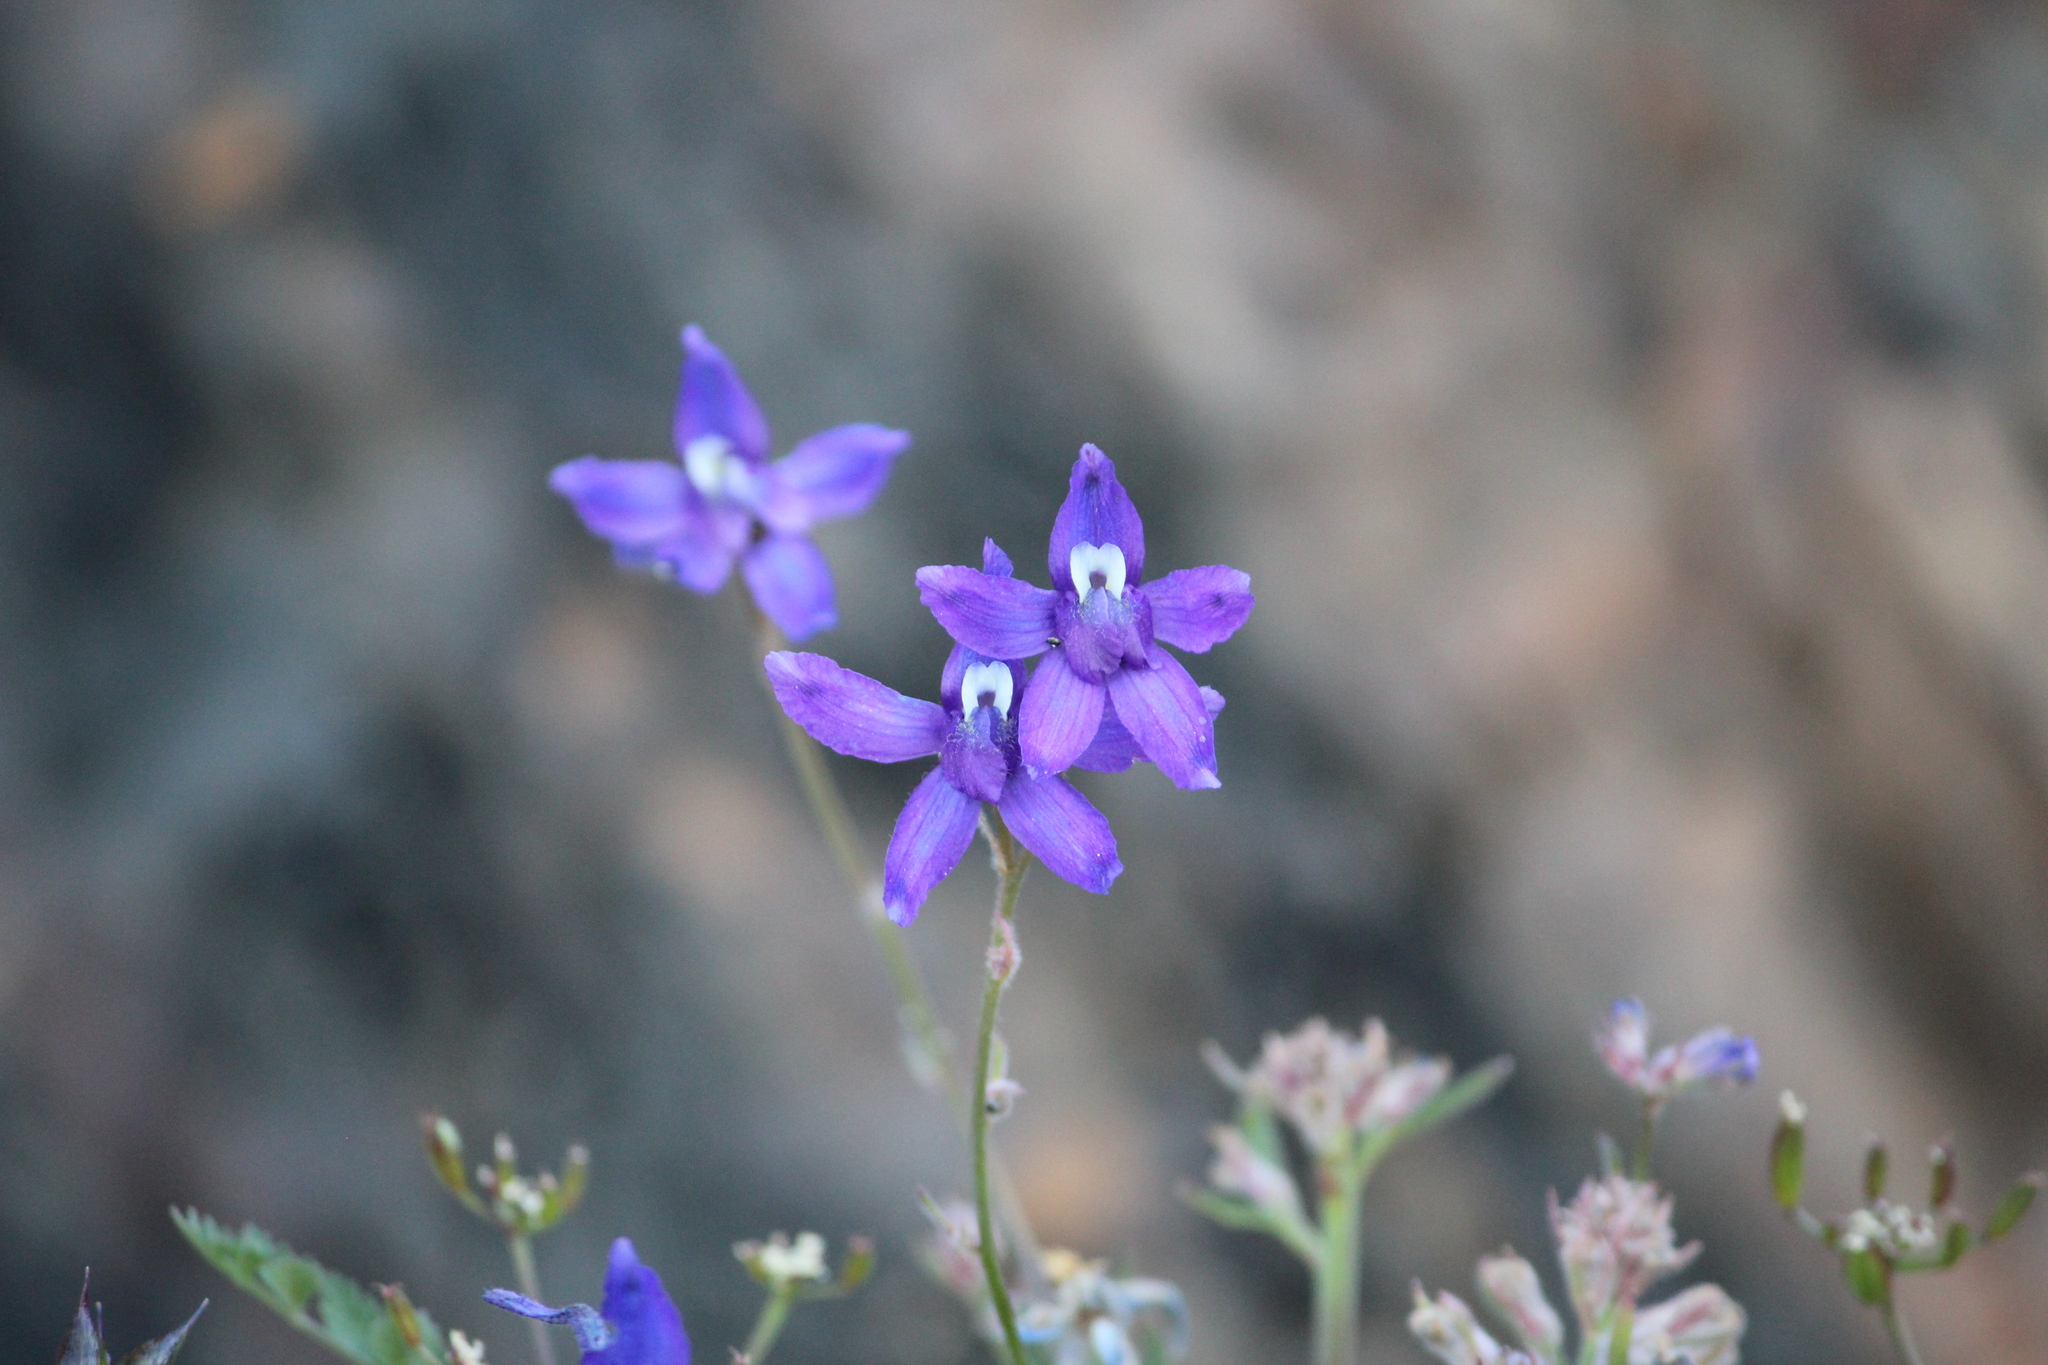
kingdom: Plantae
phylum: Tracheophyta
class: Magnoliopsida
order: Ranunculales
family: Ranunculaceae
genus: Delphinium
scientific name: Delphinium glareosum
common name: Olympic mountain larkspur
